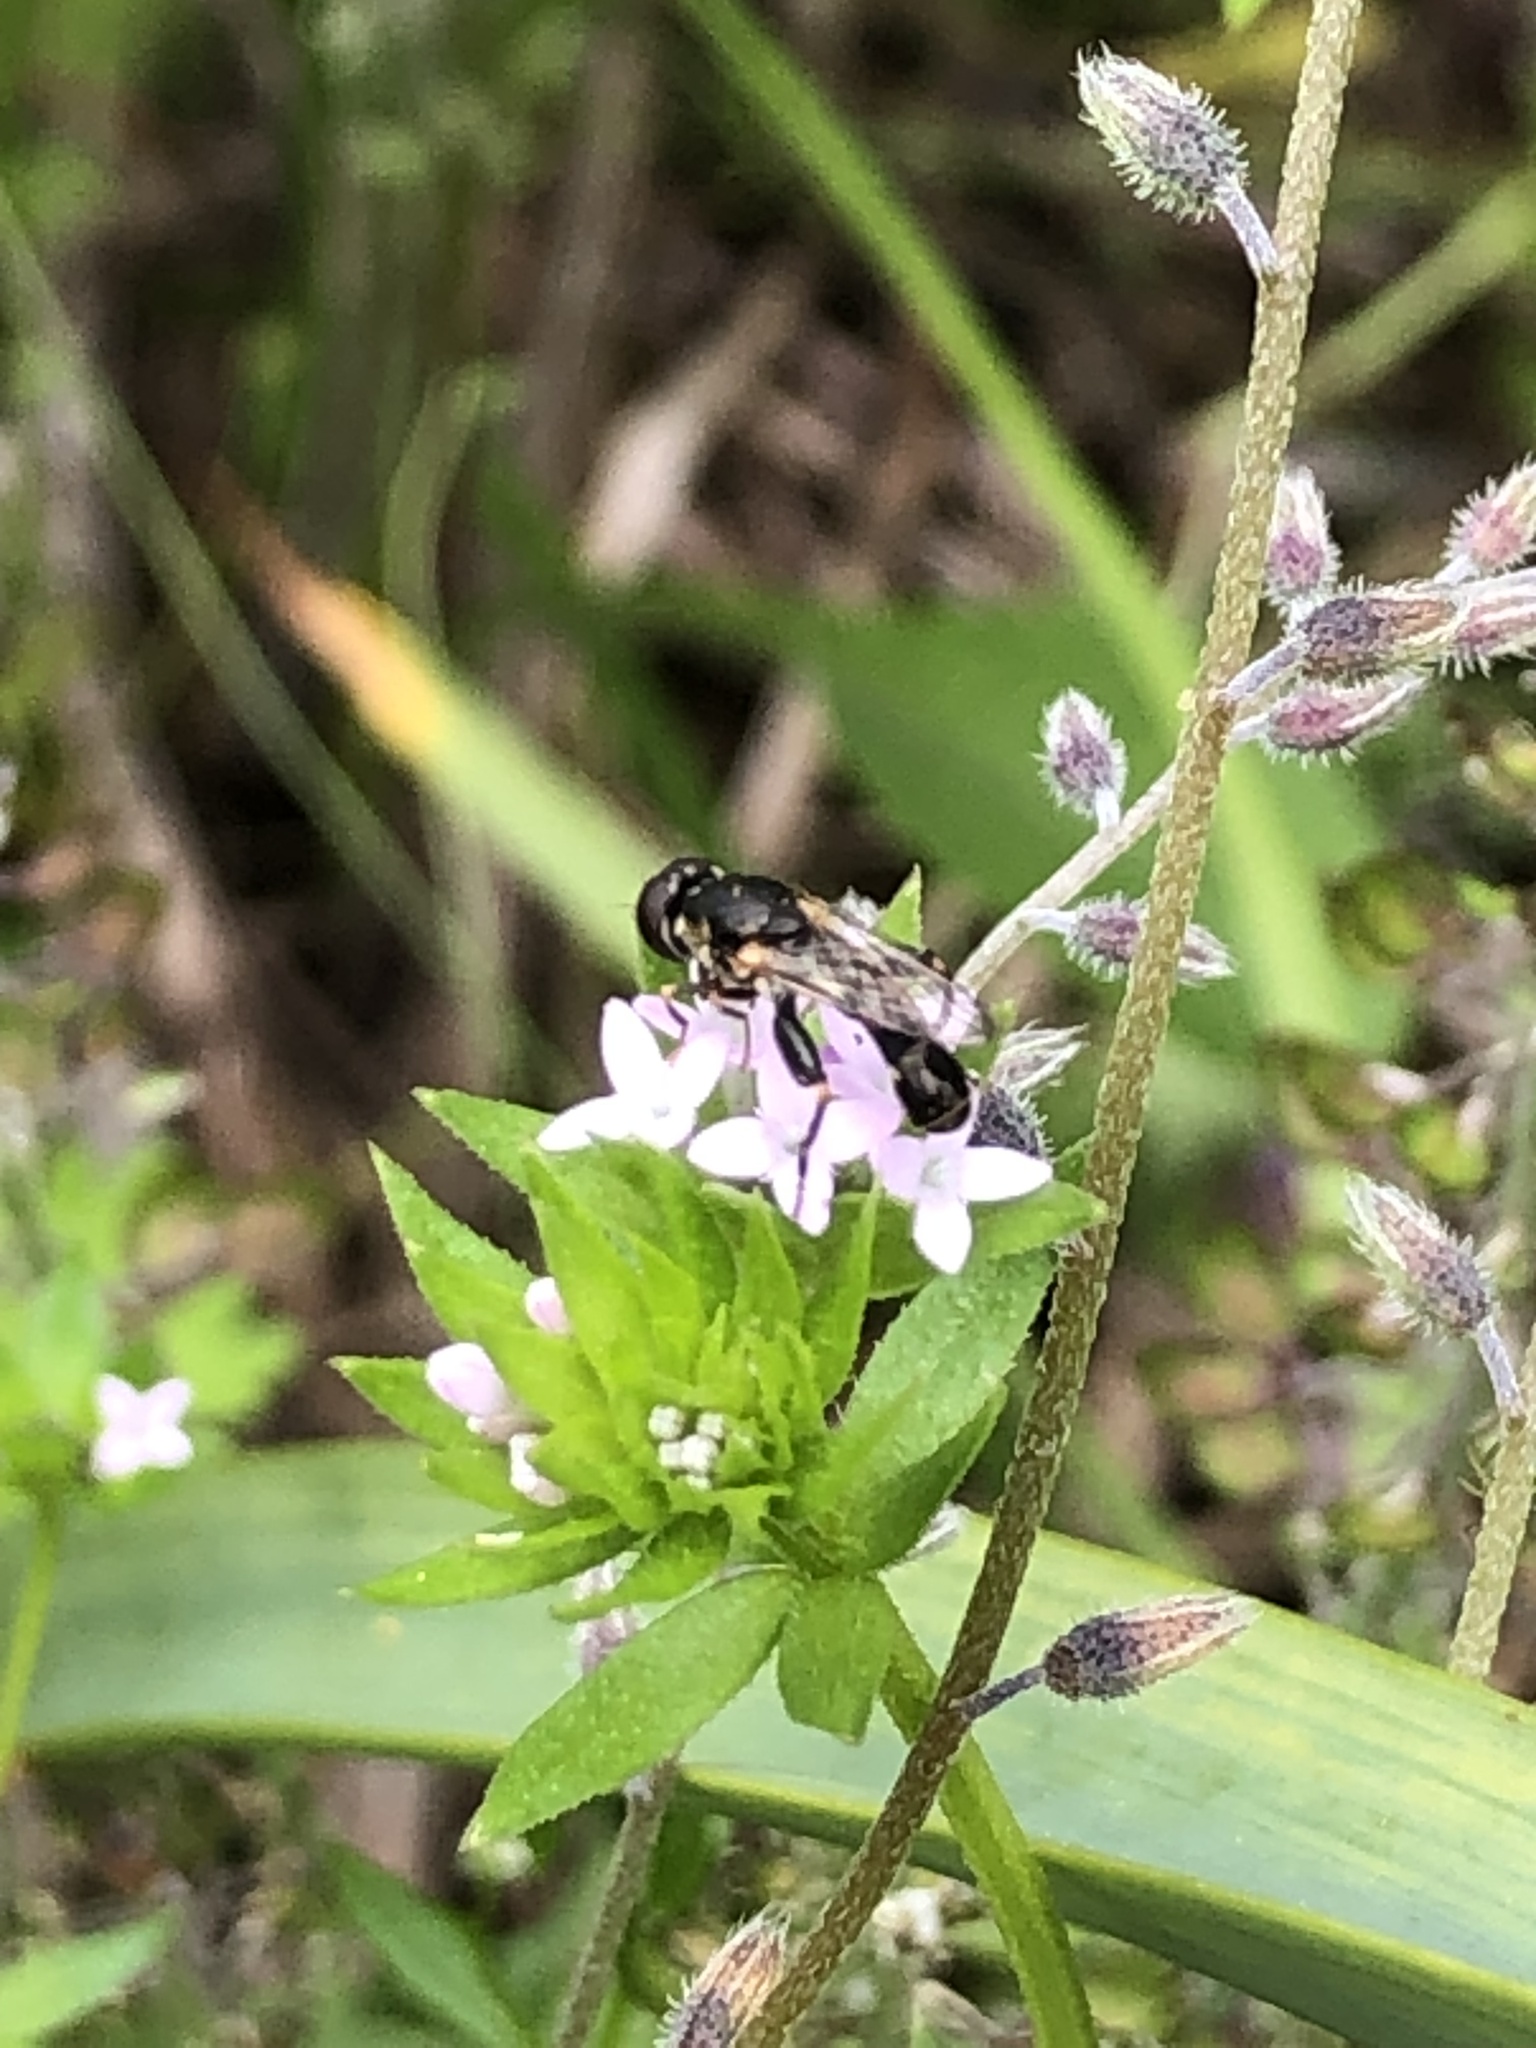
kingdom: Animalia
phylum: Arthropoda
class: Insecta
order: Diptera
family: Syrphidae
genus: Syritta
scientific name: Syritta pipiens
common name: Hover fly
